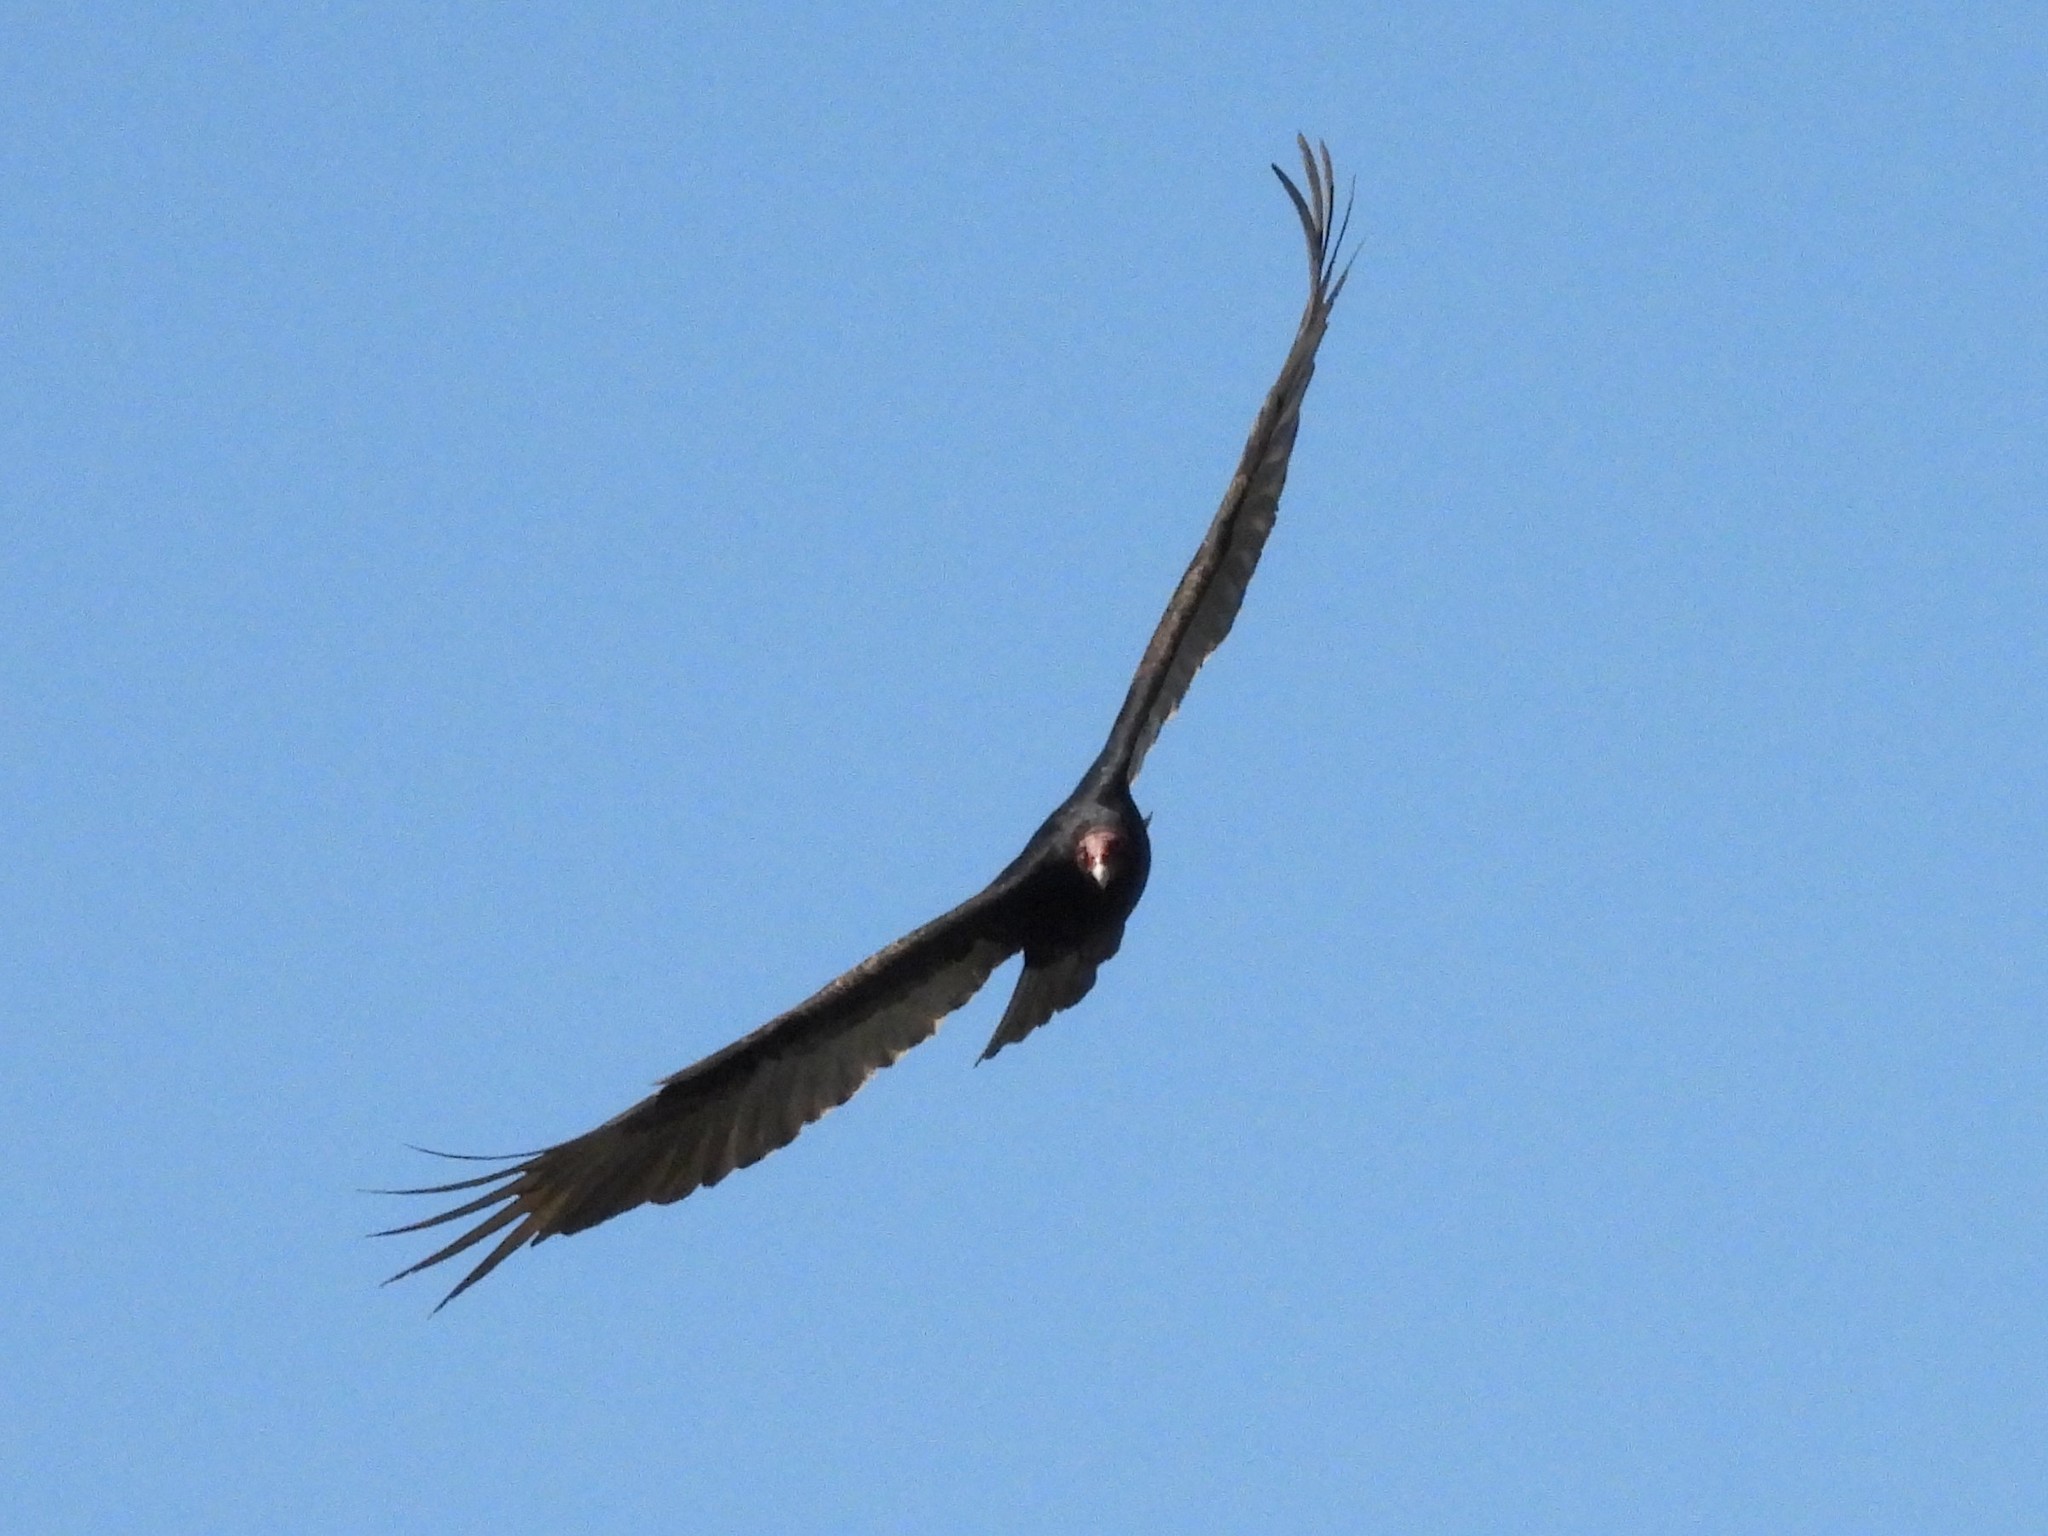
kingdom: Animalia
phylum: Chordata
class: Aves
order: Accipitriformes
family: Cathartidae
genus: Cathartes
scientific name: Cathartes aura
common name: Turkey vulture
